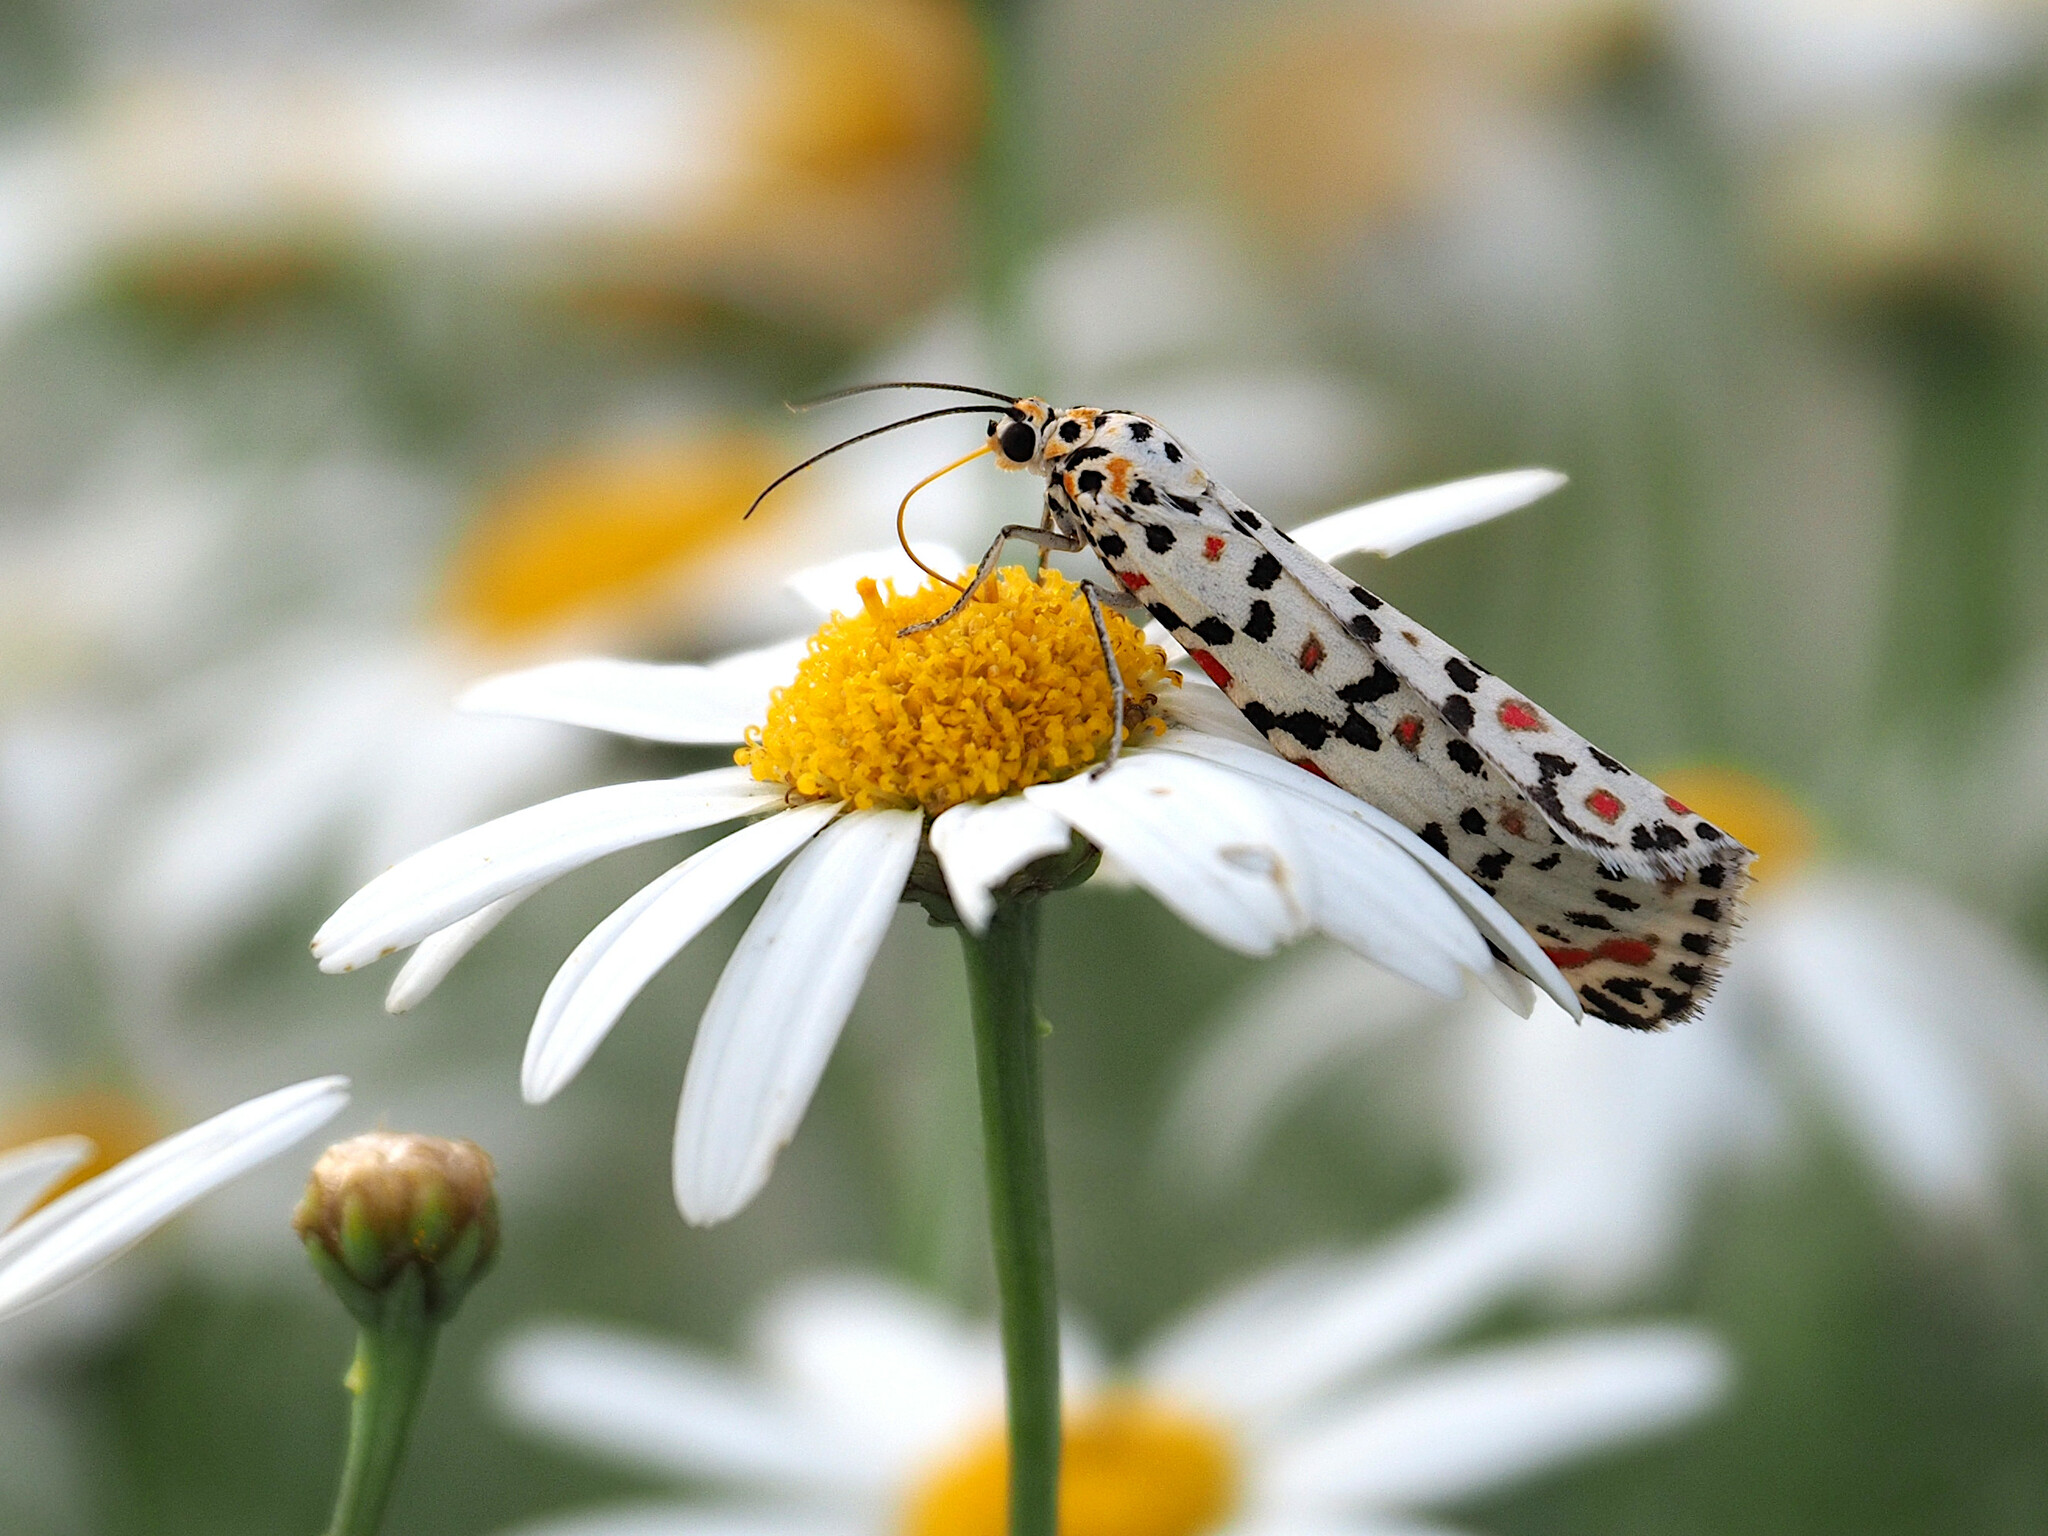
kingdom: Animalia
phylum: Arthropoda
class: Insecta
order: Lepidoptera
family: Erebidae
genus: Utetheisa
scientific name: Utetheisa pulchella
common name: Crimson speckled
